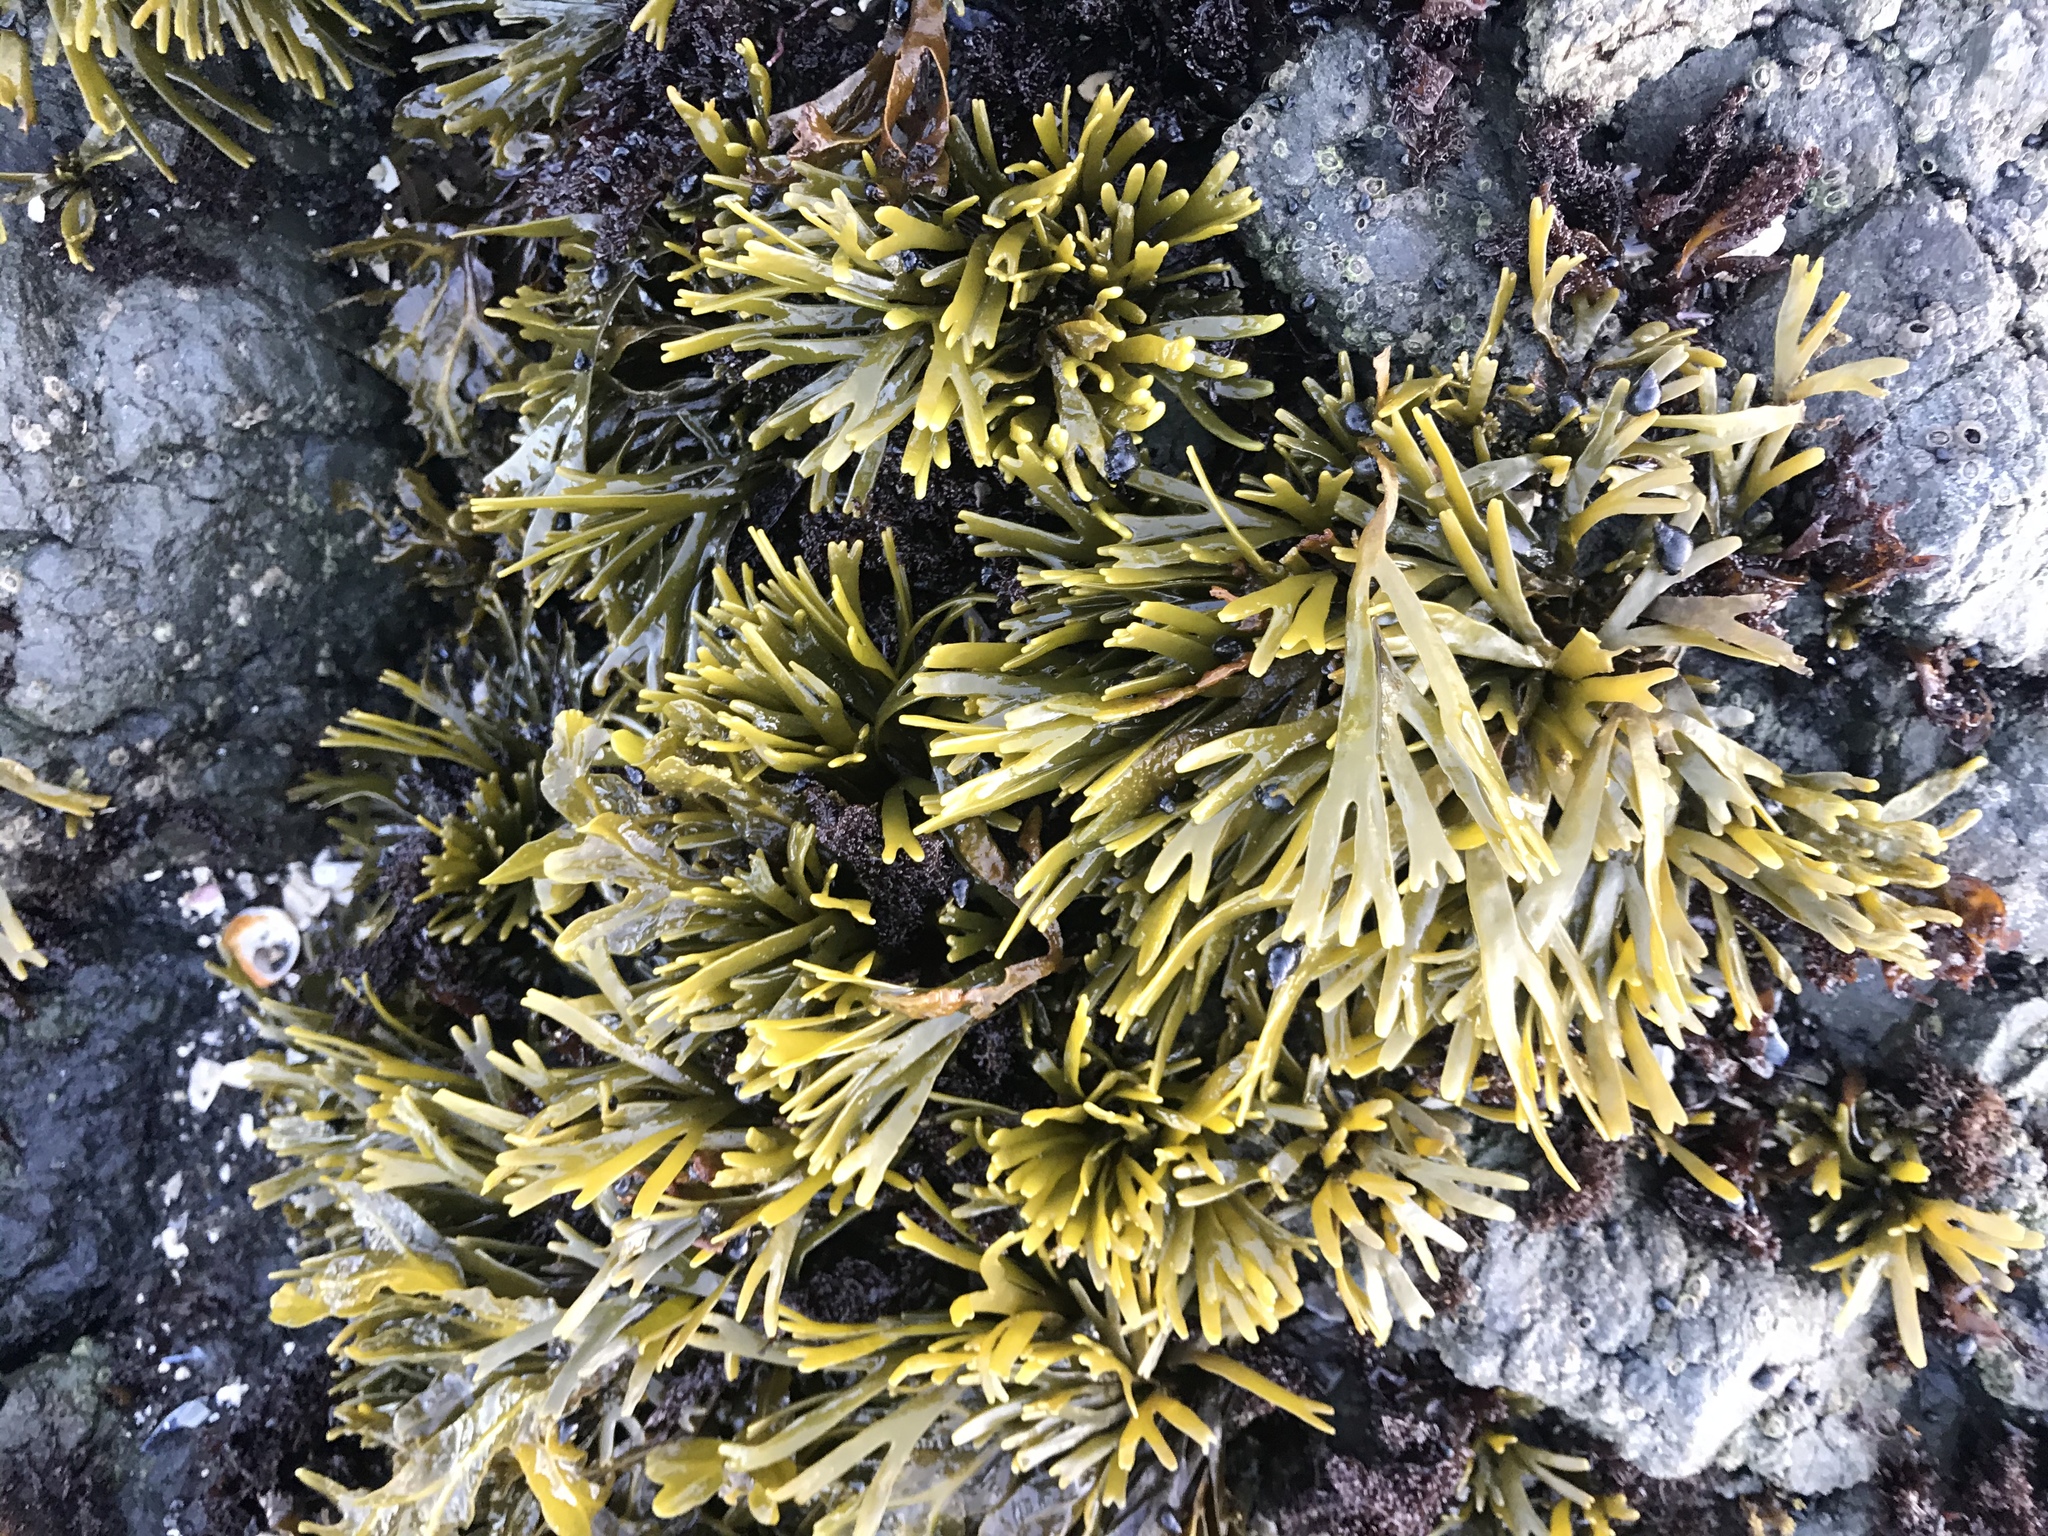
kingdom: Chromista
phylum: Ochrophyta
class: Phaeophyceae
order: Fucales
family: Fucaceae
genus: Pelvetiopsis
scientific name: Pelvetiopsis limitata
